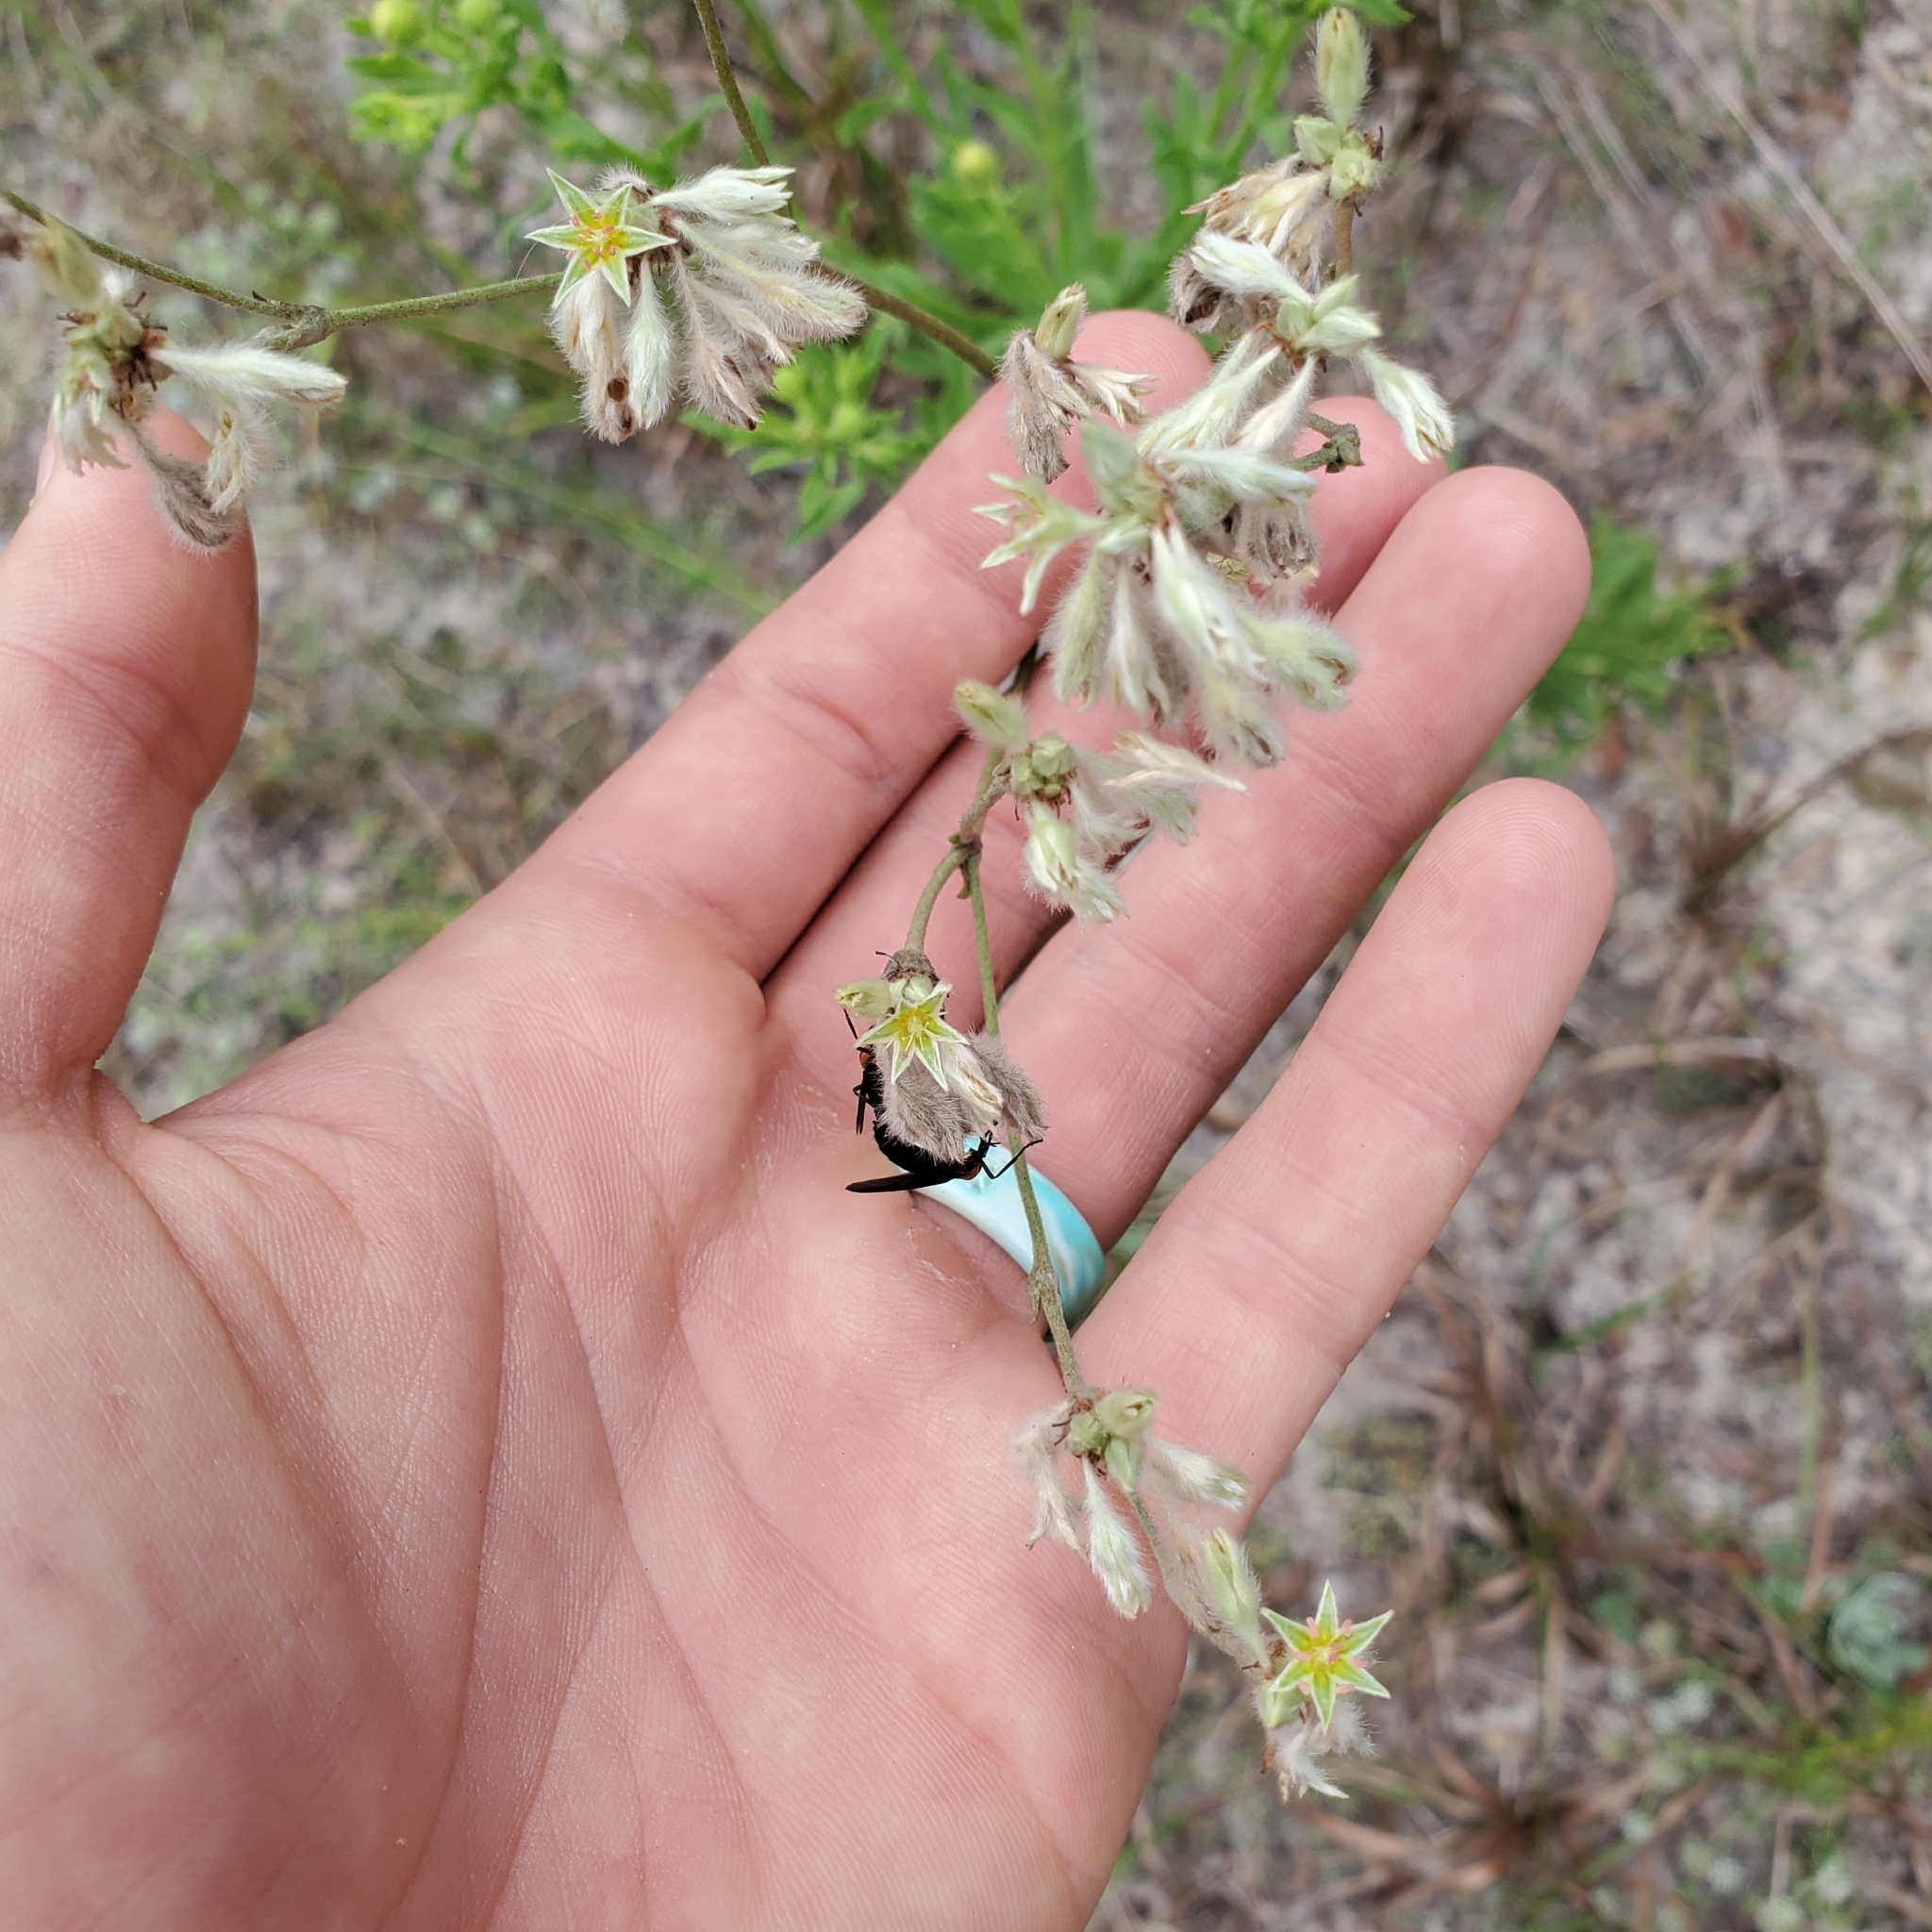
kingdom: Plantae
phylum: Tracheophyta
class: Magnoliopsida
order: Caryophyllales
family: Polygonaceae
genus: Eriogonum
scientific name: Eriogonum longifolium
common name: Longleaf wild buckwheat
